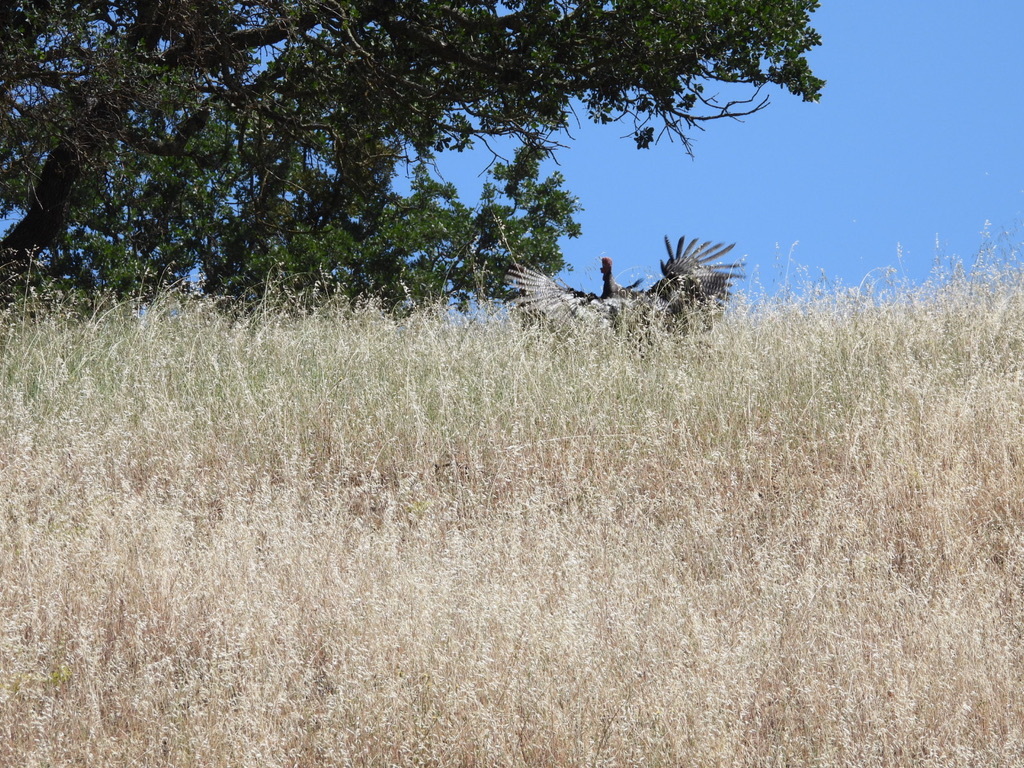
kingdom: Animalia
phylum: Chordata
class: Aves
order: Galliformes
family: Phasianidae
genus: Meleagris
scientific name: Meleagris gallopavo
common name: Wild turkey
